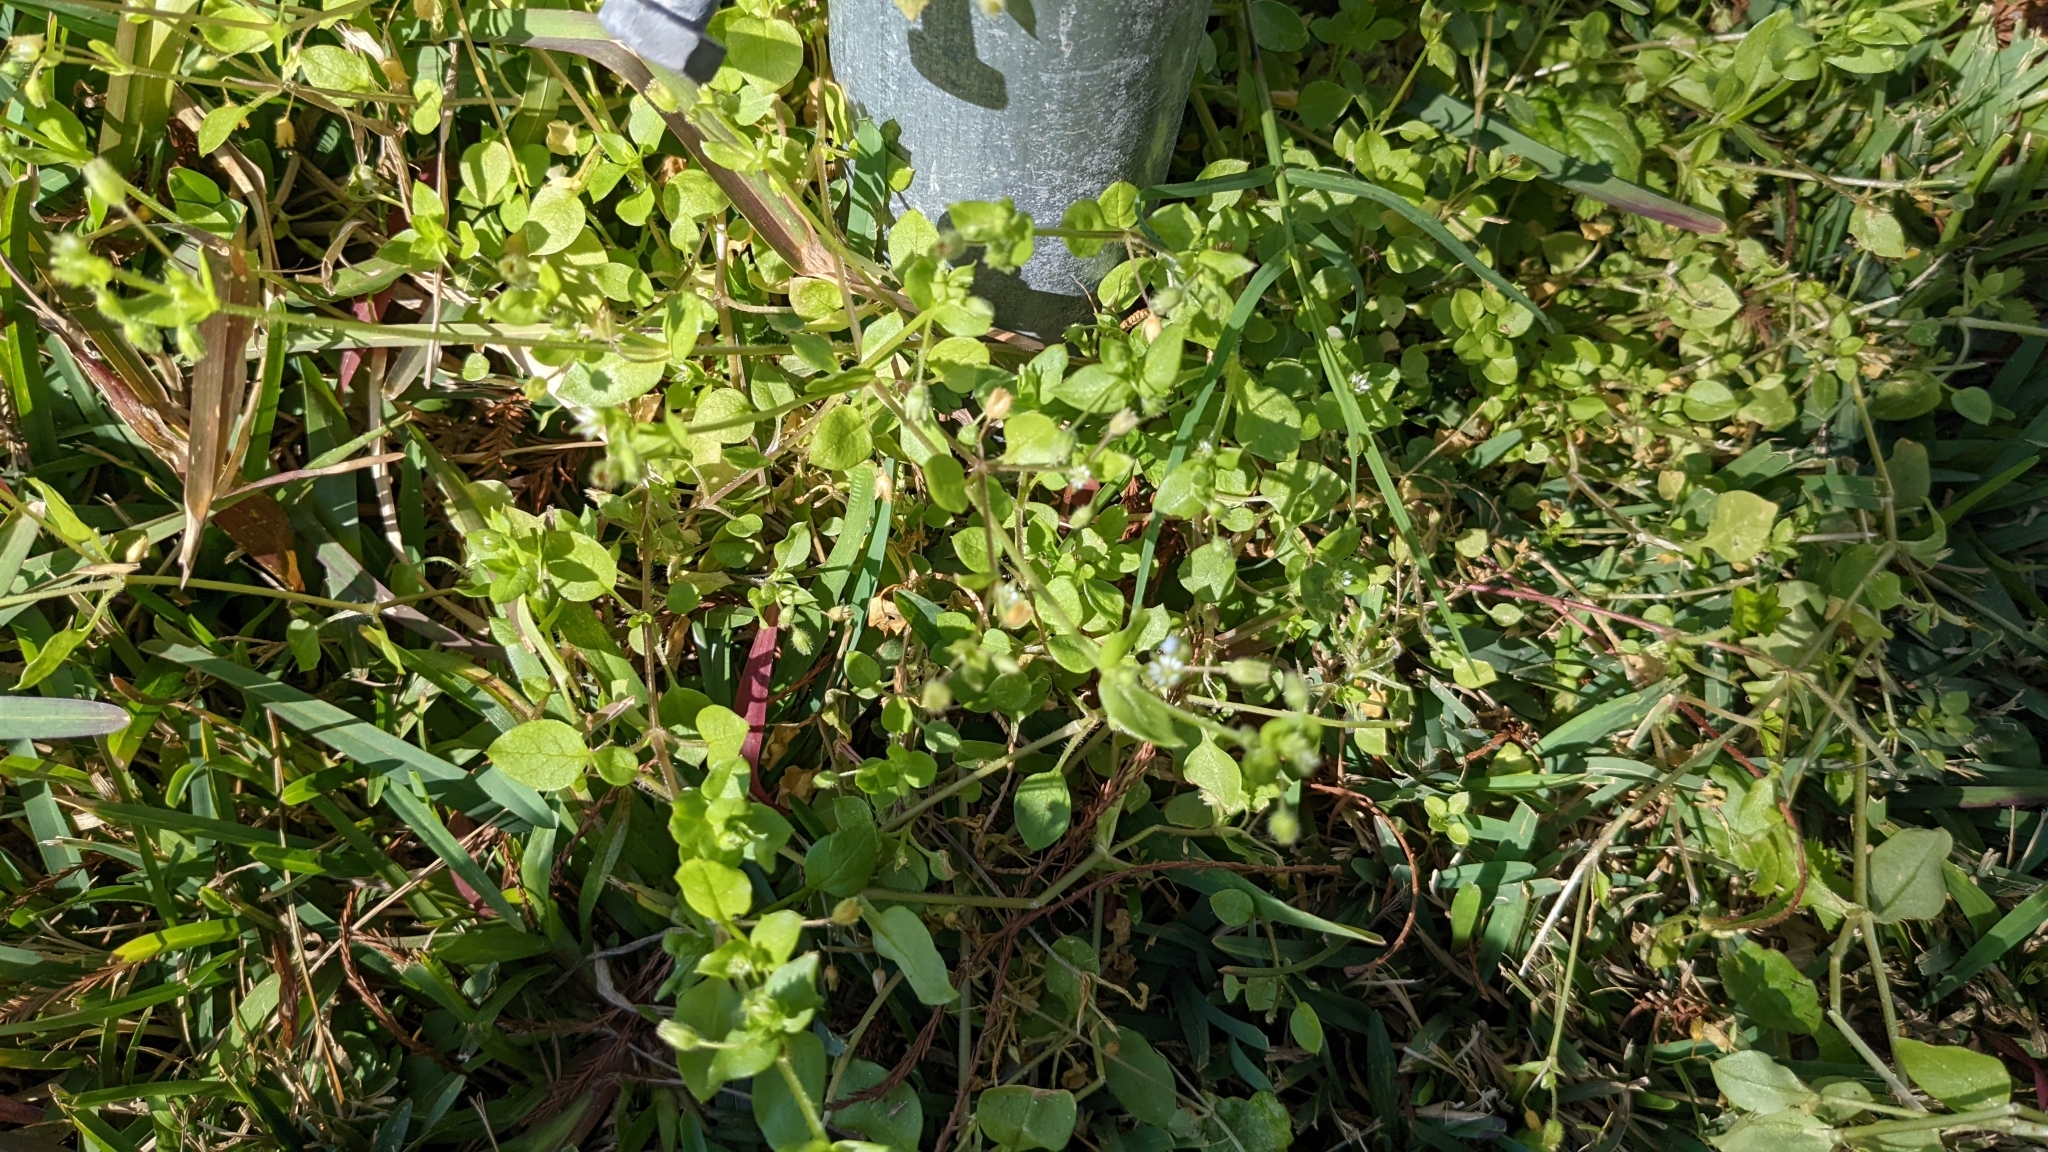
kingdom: Plantae
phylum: Tracheophyta
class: Magnoliopsida
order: Caryophyllales
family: Caryophyllaceae
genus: Stellaria
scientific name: Stellaria media
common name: Common chickweed
